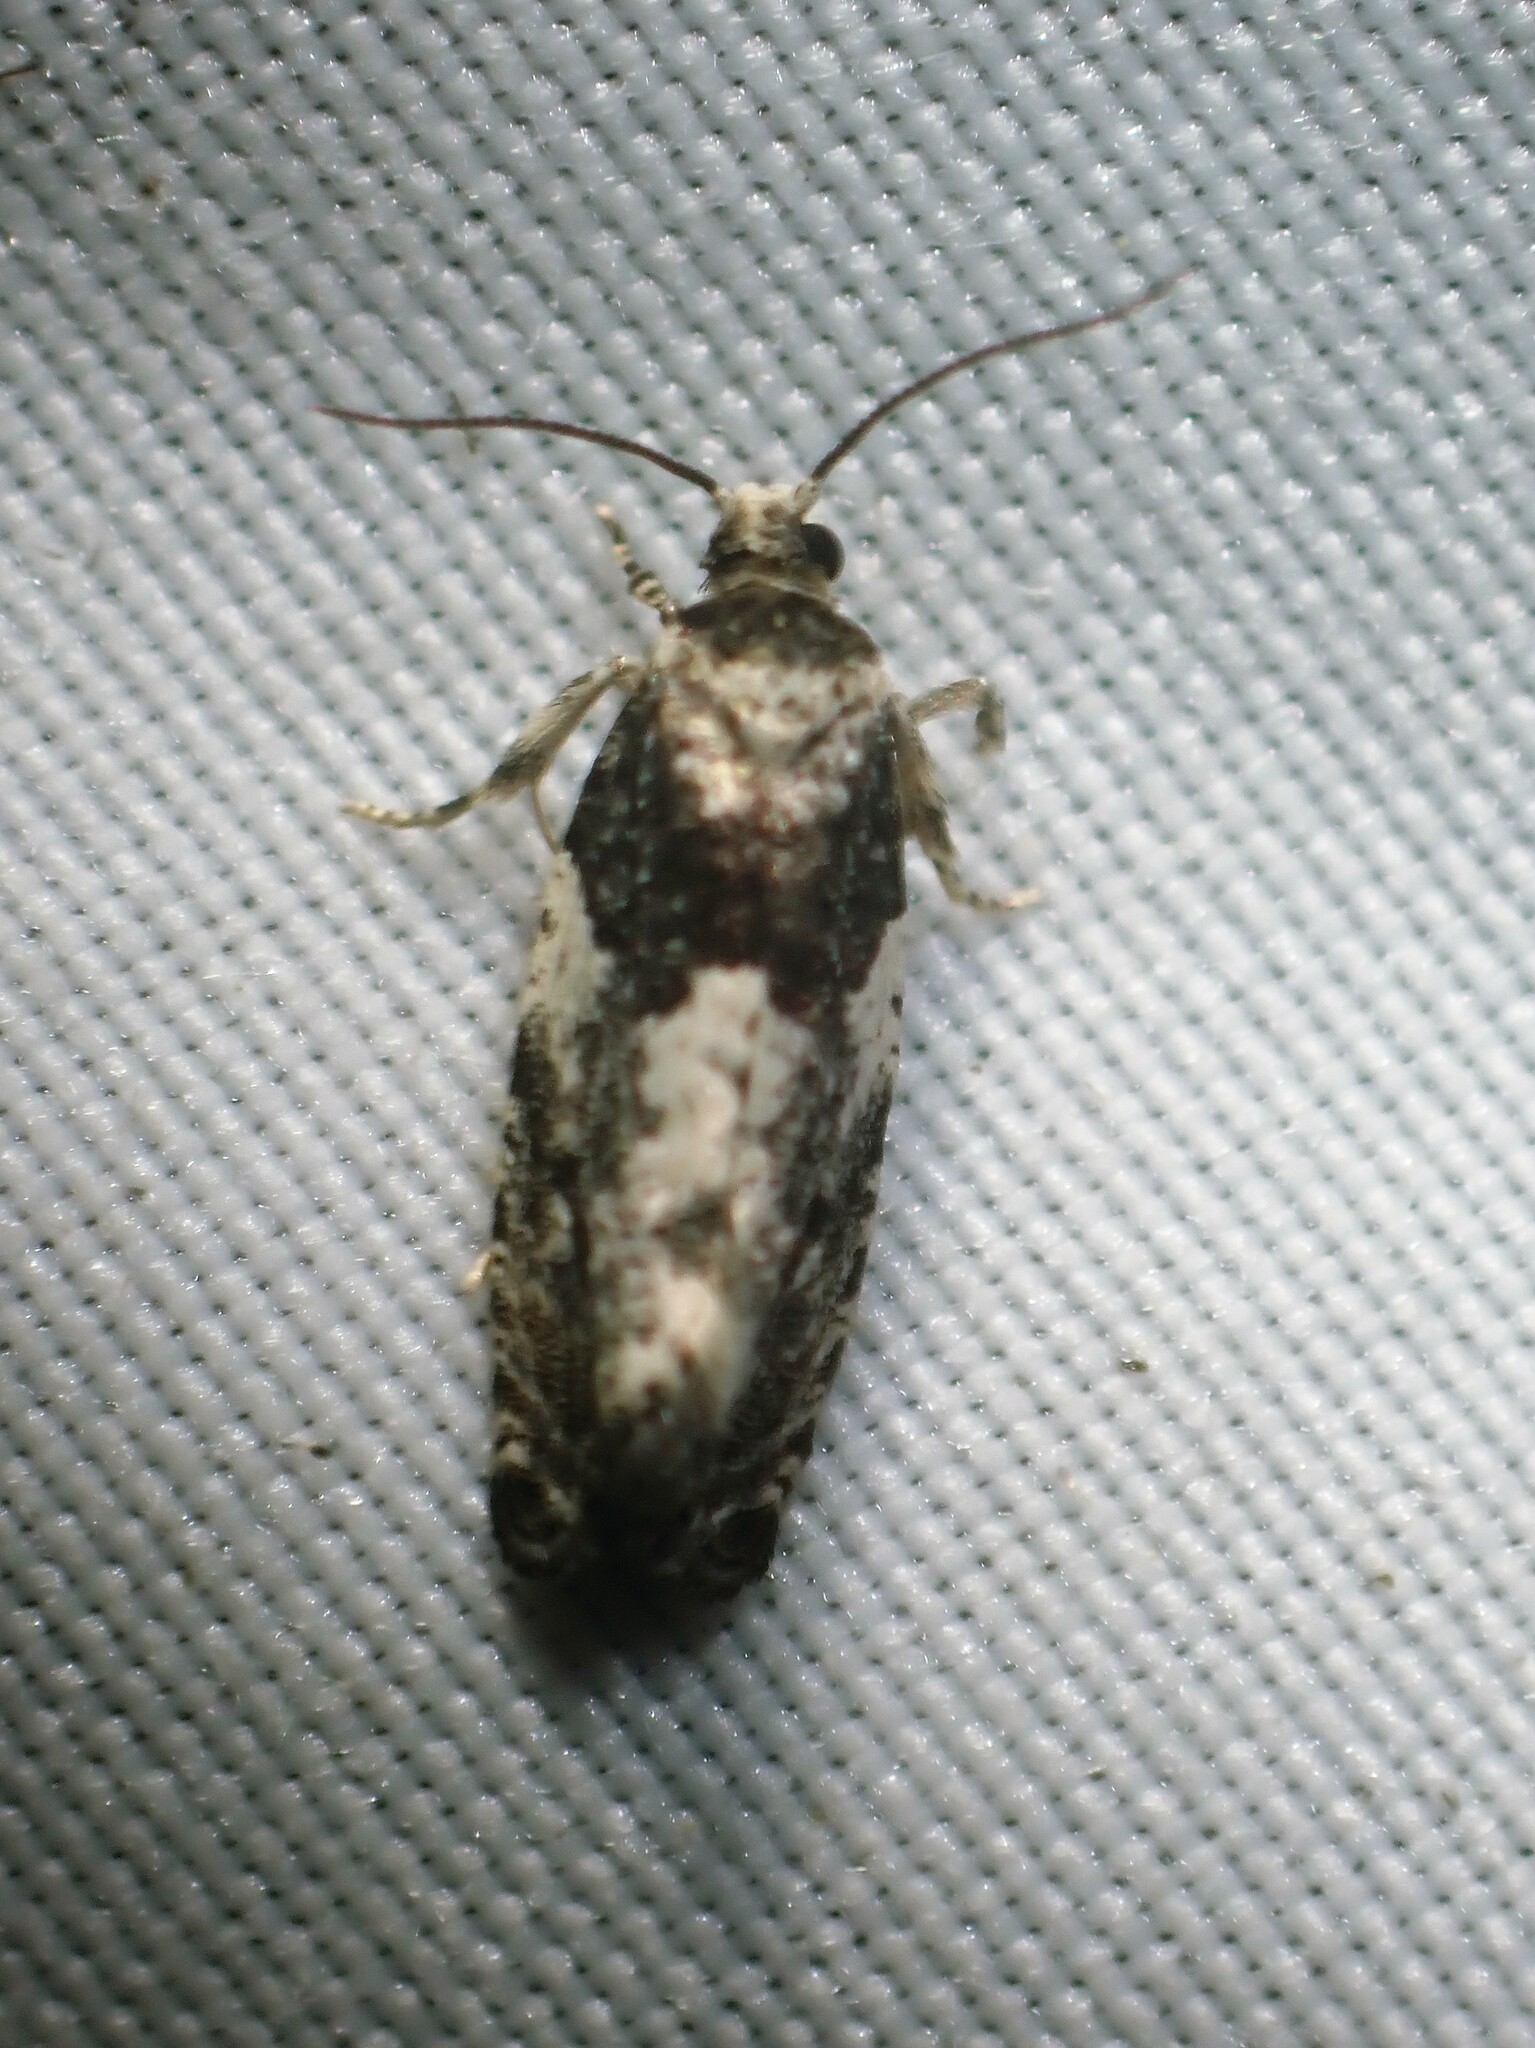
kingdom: Animalia
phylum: Arthropoda
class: Insecta
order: Lepidoptera
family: Tortricidae
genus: Gypsonoma
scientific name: Gypsonoma adjuncta
